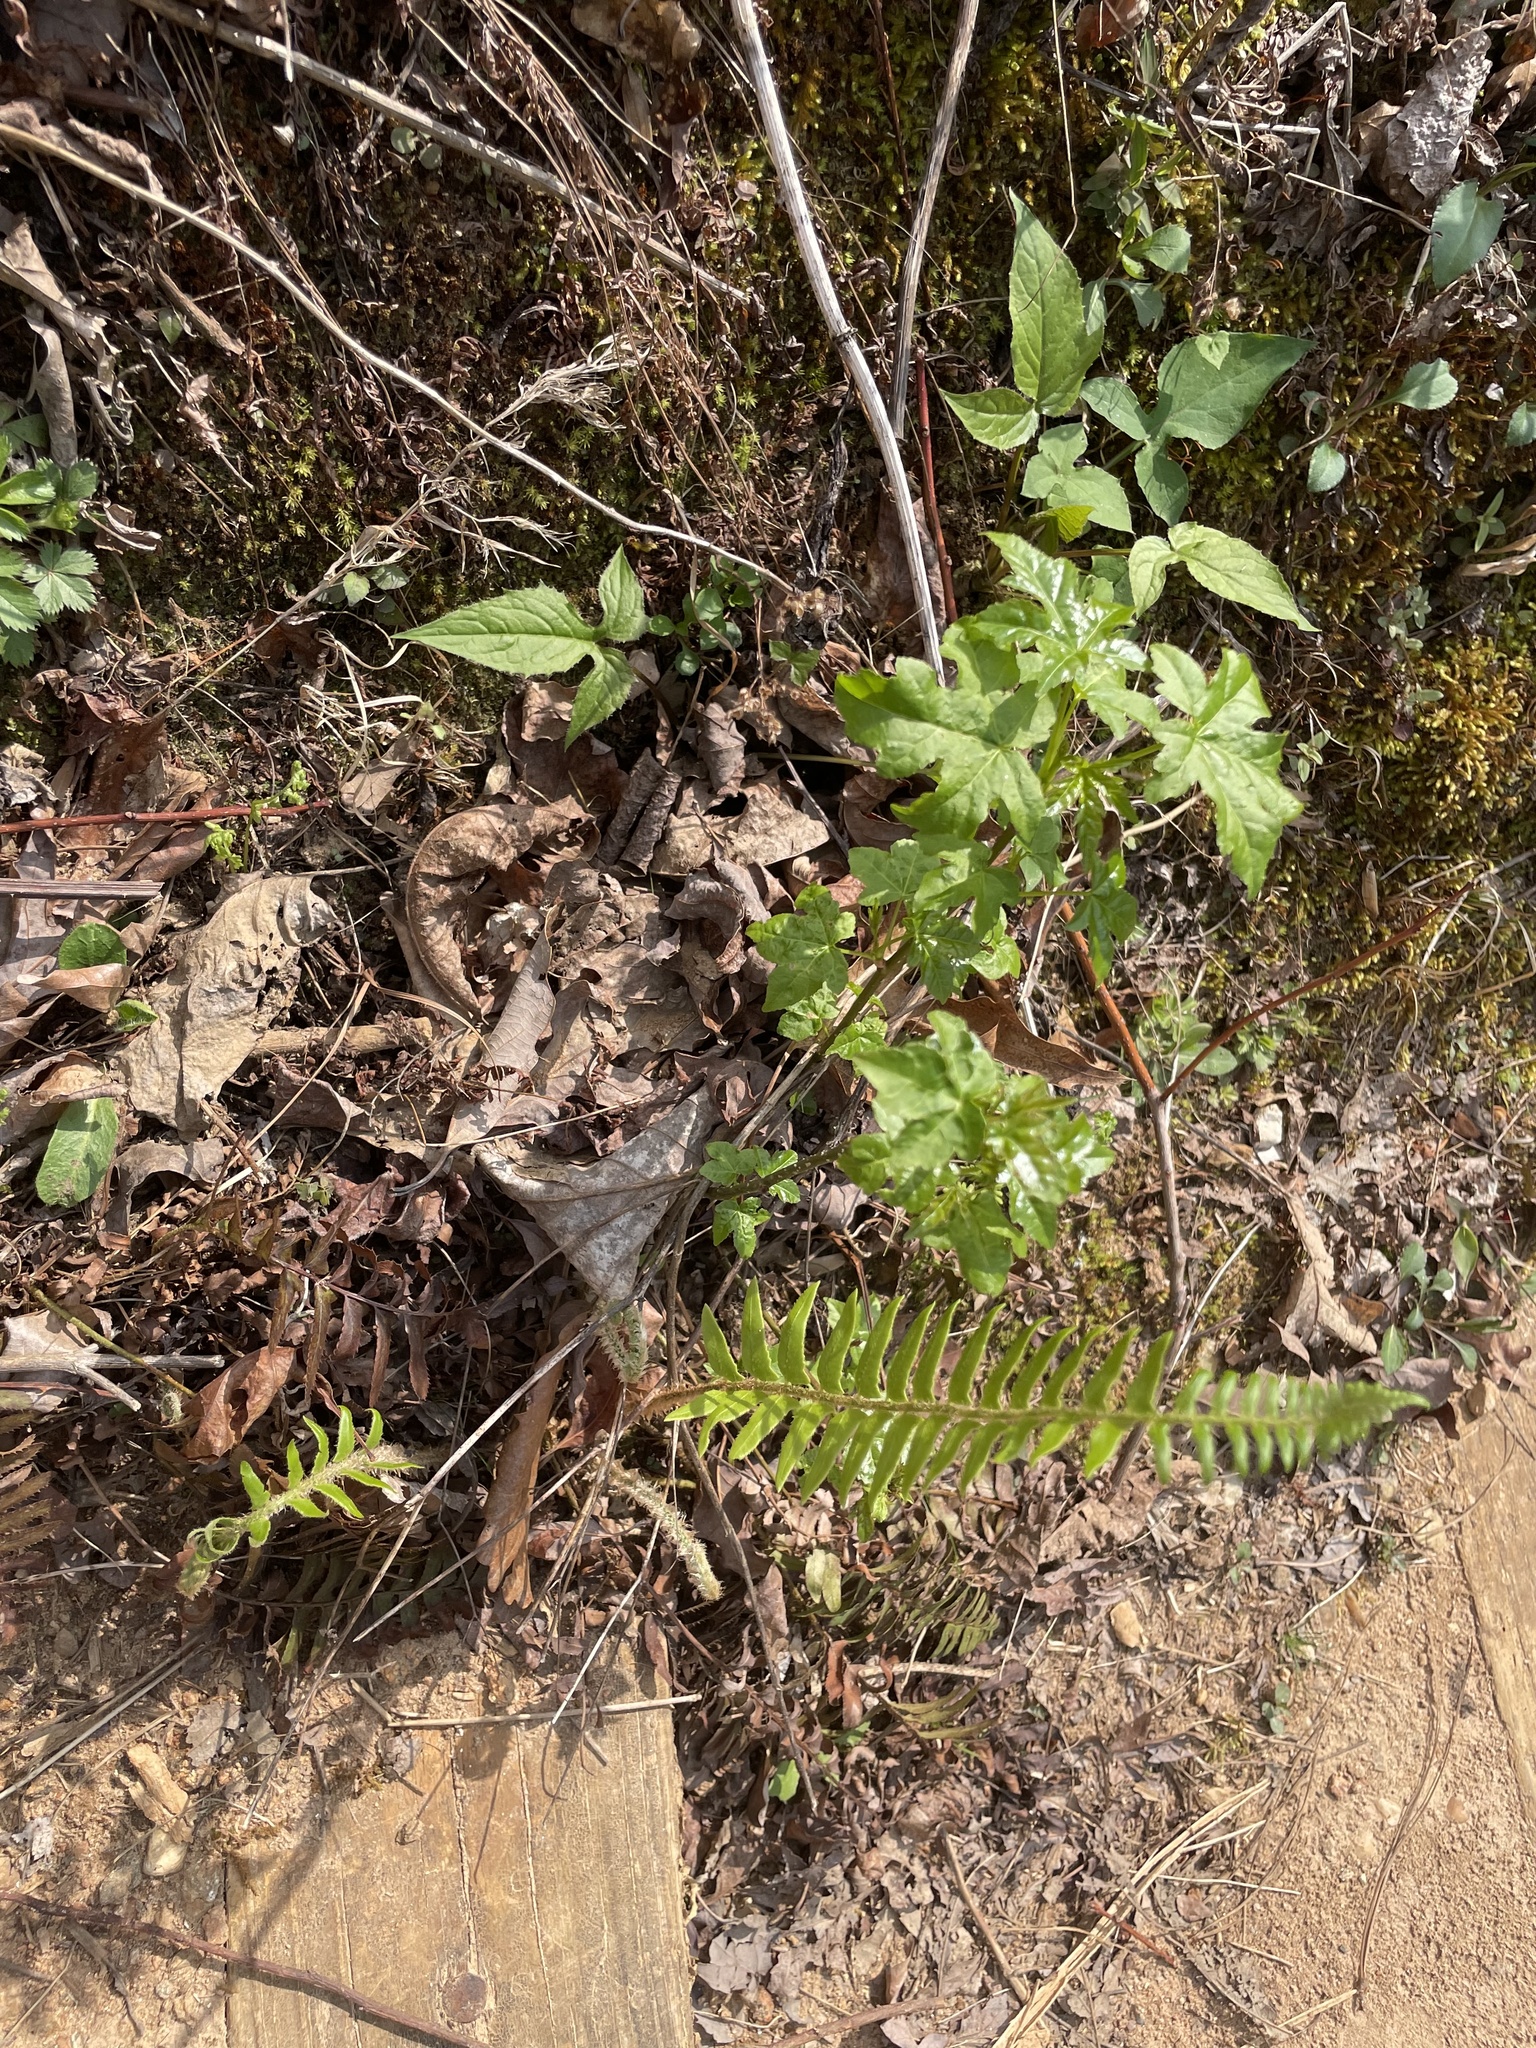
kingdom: Plantae
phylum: Tracheophyta
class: Magnoliopsida
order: Saxifragales
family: Altingiaceae
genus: Liquidambar
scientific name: Liquidambar styraciflua
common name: Sweet gum
